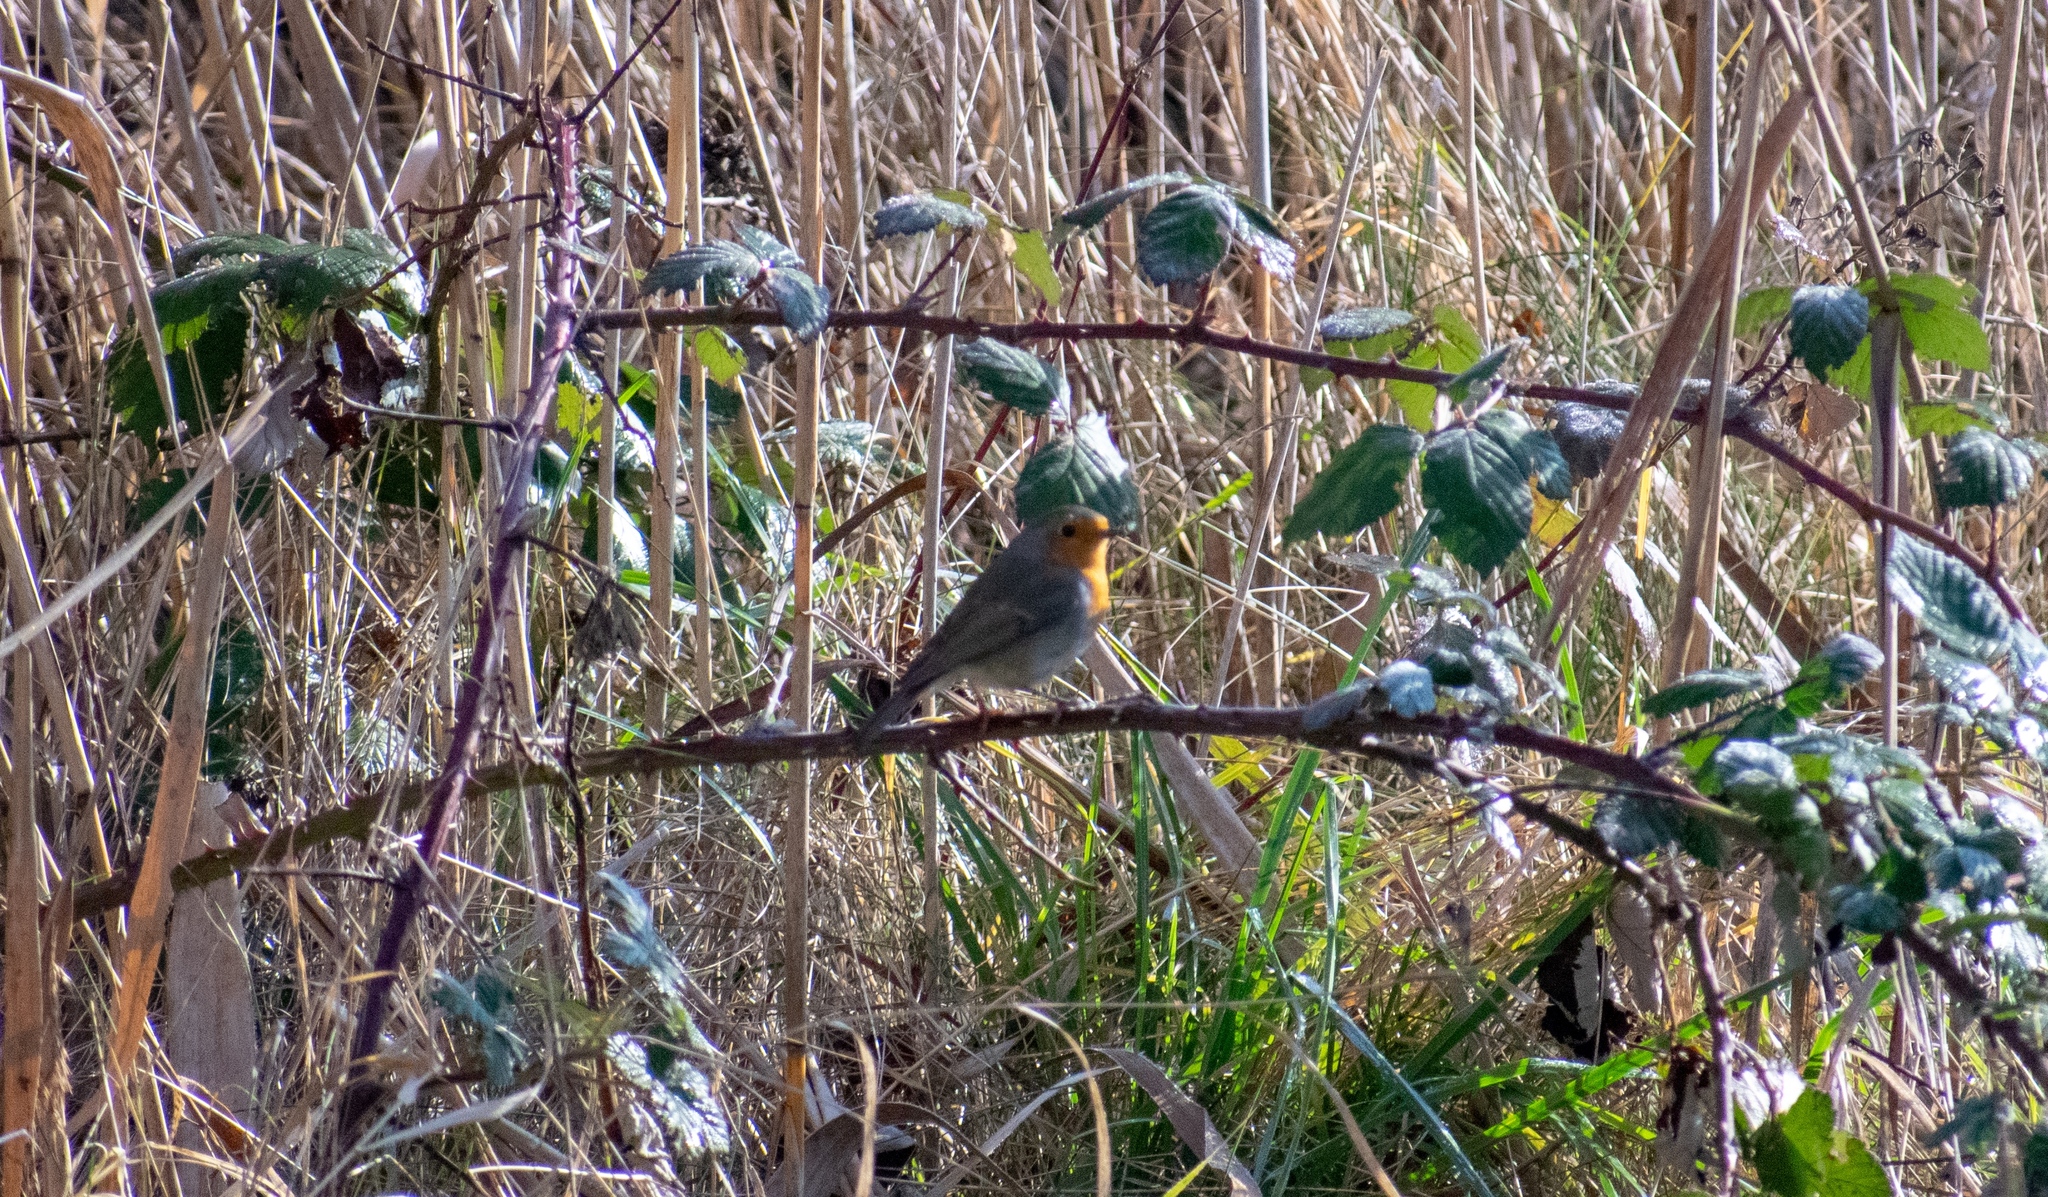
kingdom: Animalia
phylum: Chordata
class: Aves
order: Passeriformes
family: Muscicapidae
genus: Erithacus
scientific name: Erithacus rubecula
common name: European robin
